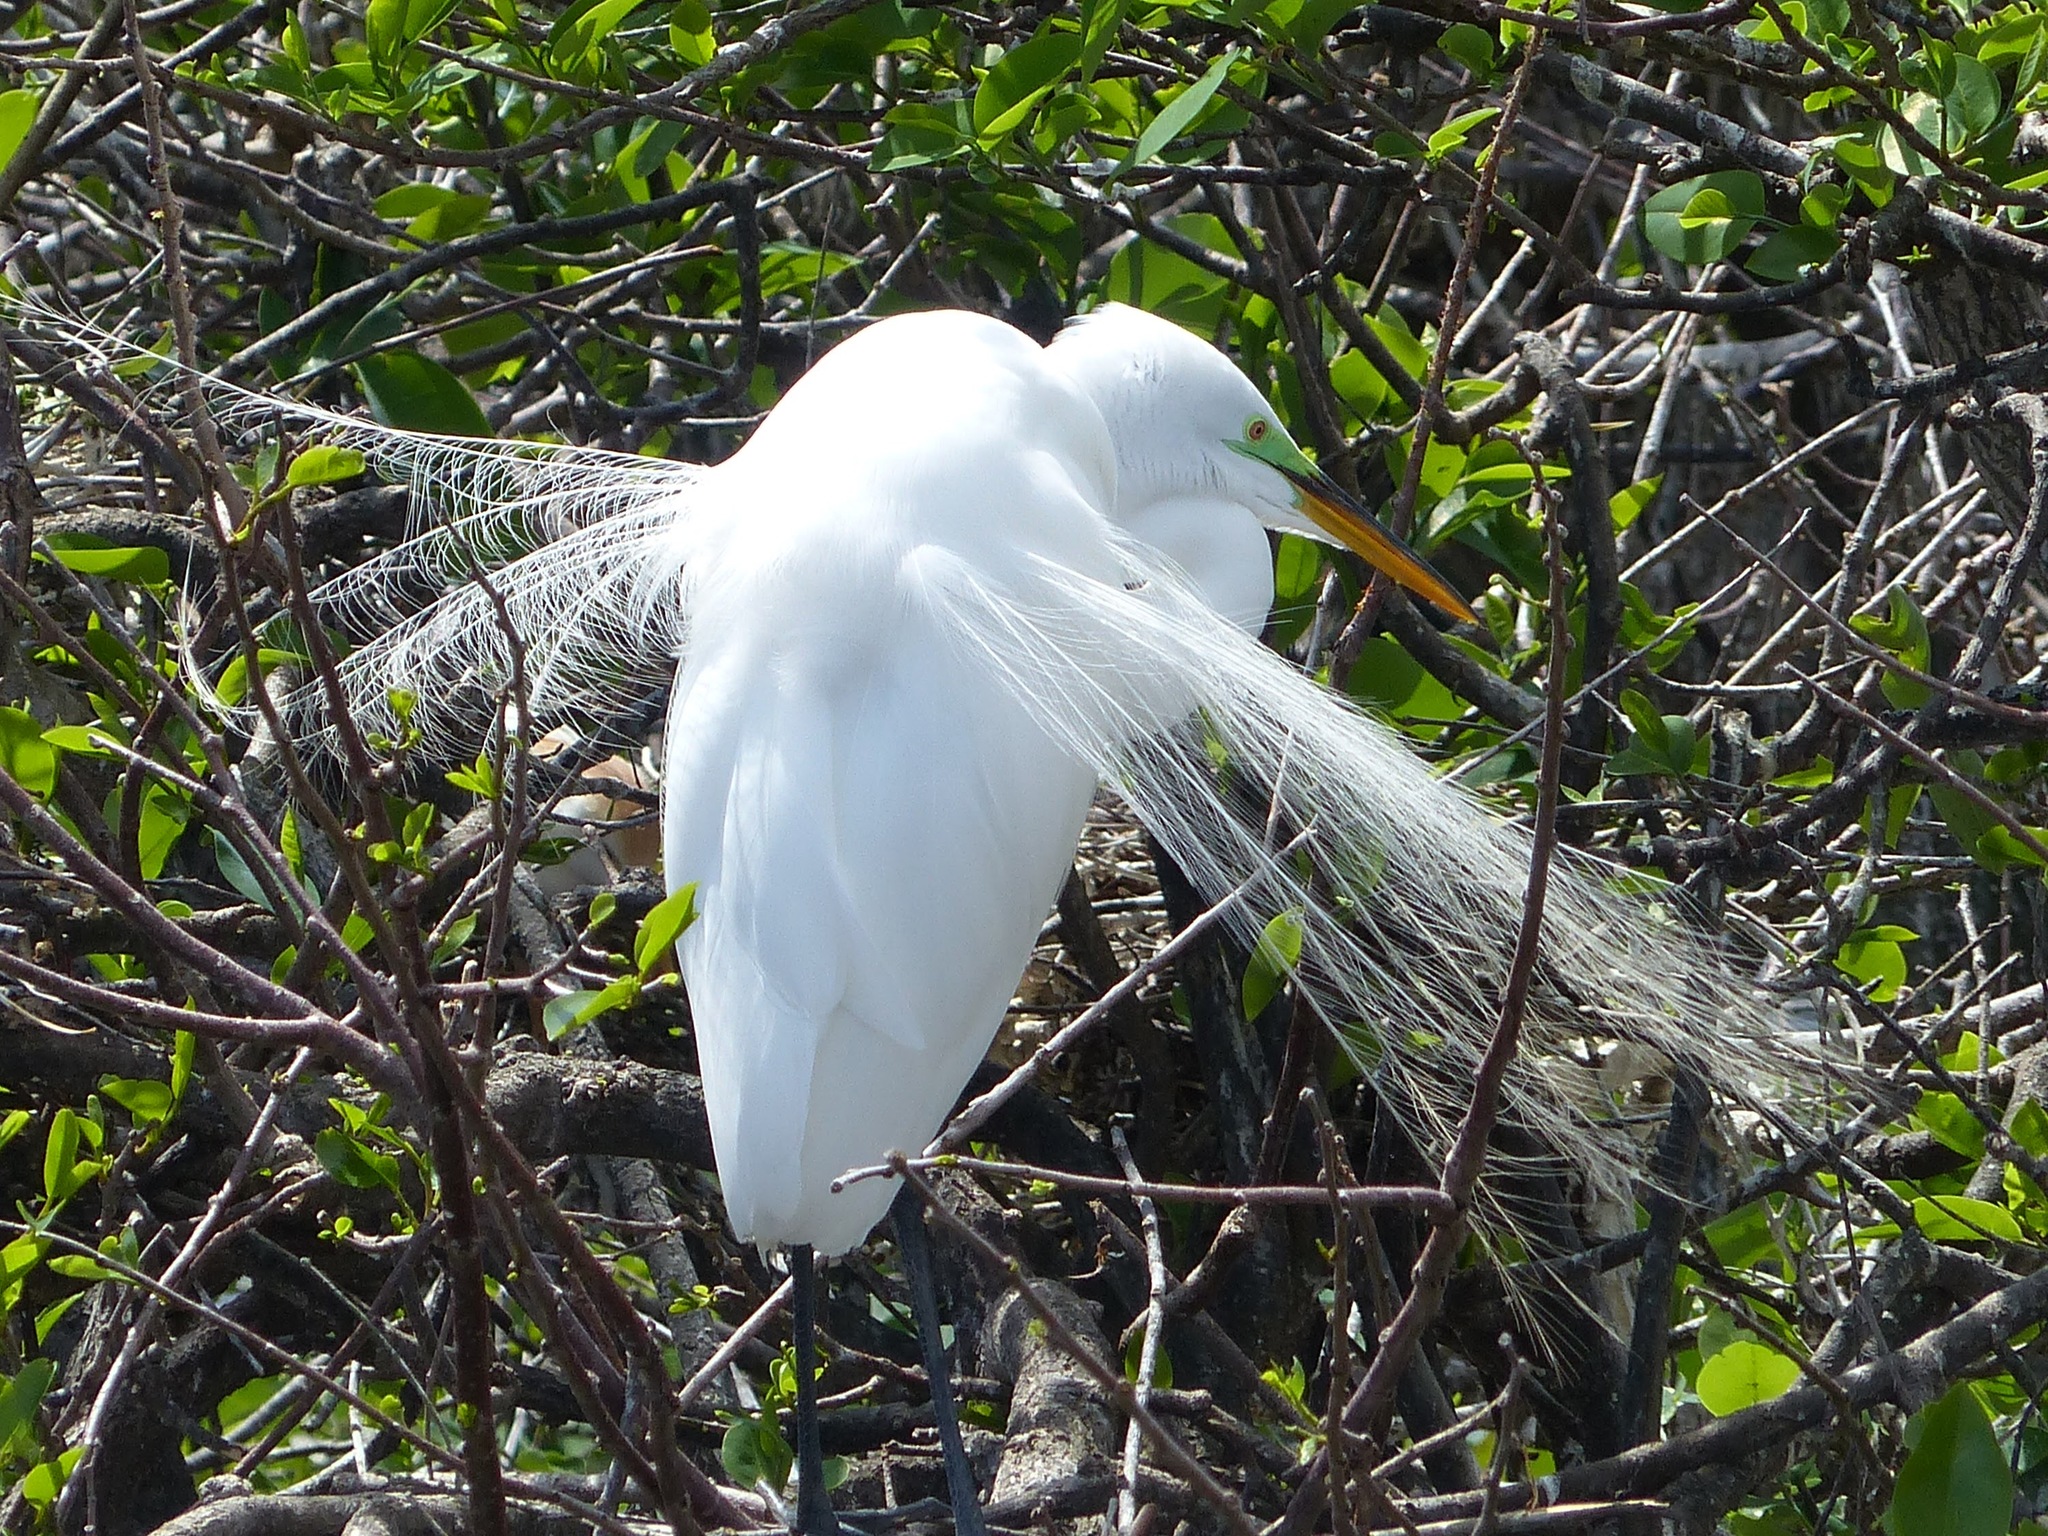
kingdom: Animalia
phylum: Chordata
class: Aves
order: Pelecaniformes
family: Ardeidae
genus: Ardea
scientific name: Ardea alba
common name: Great egret
